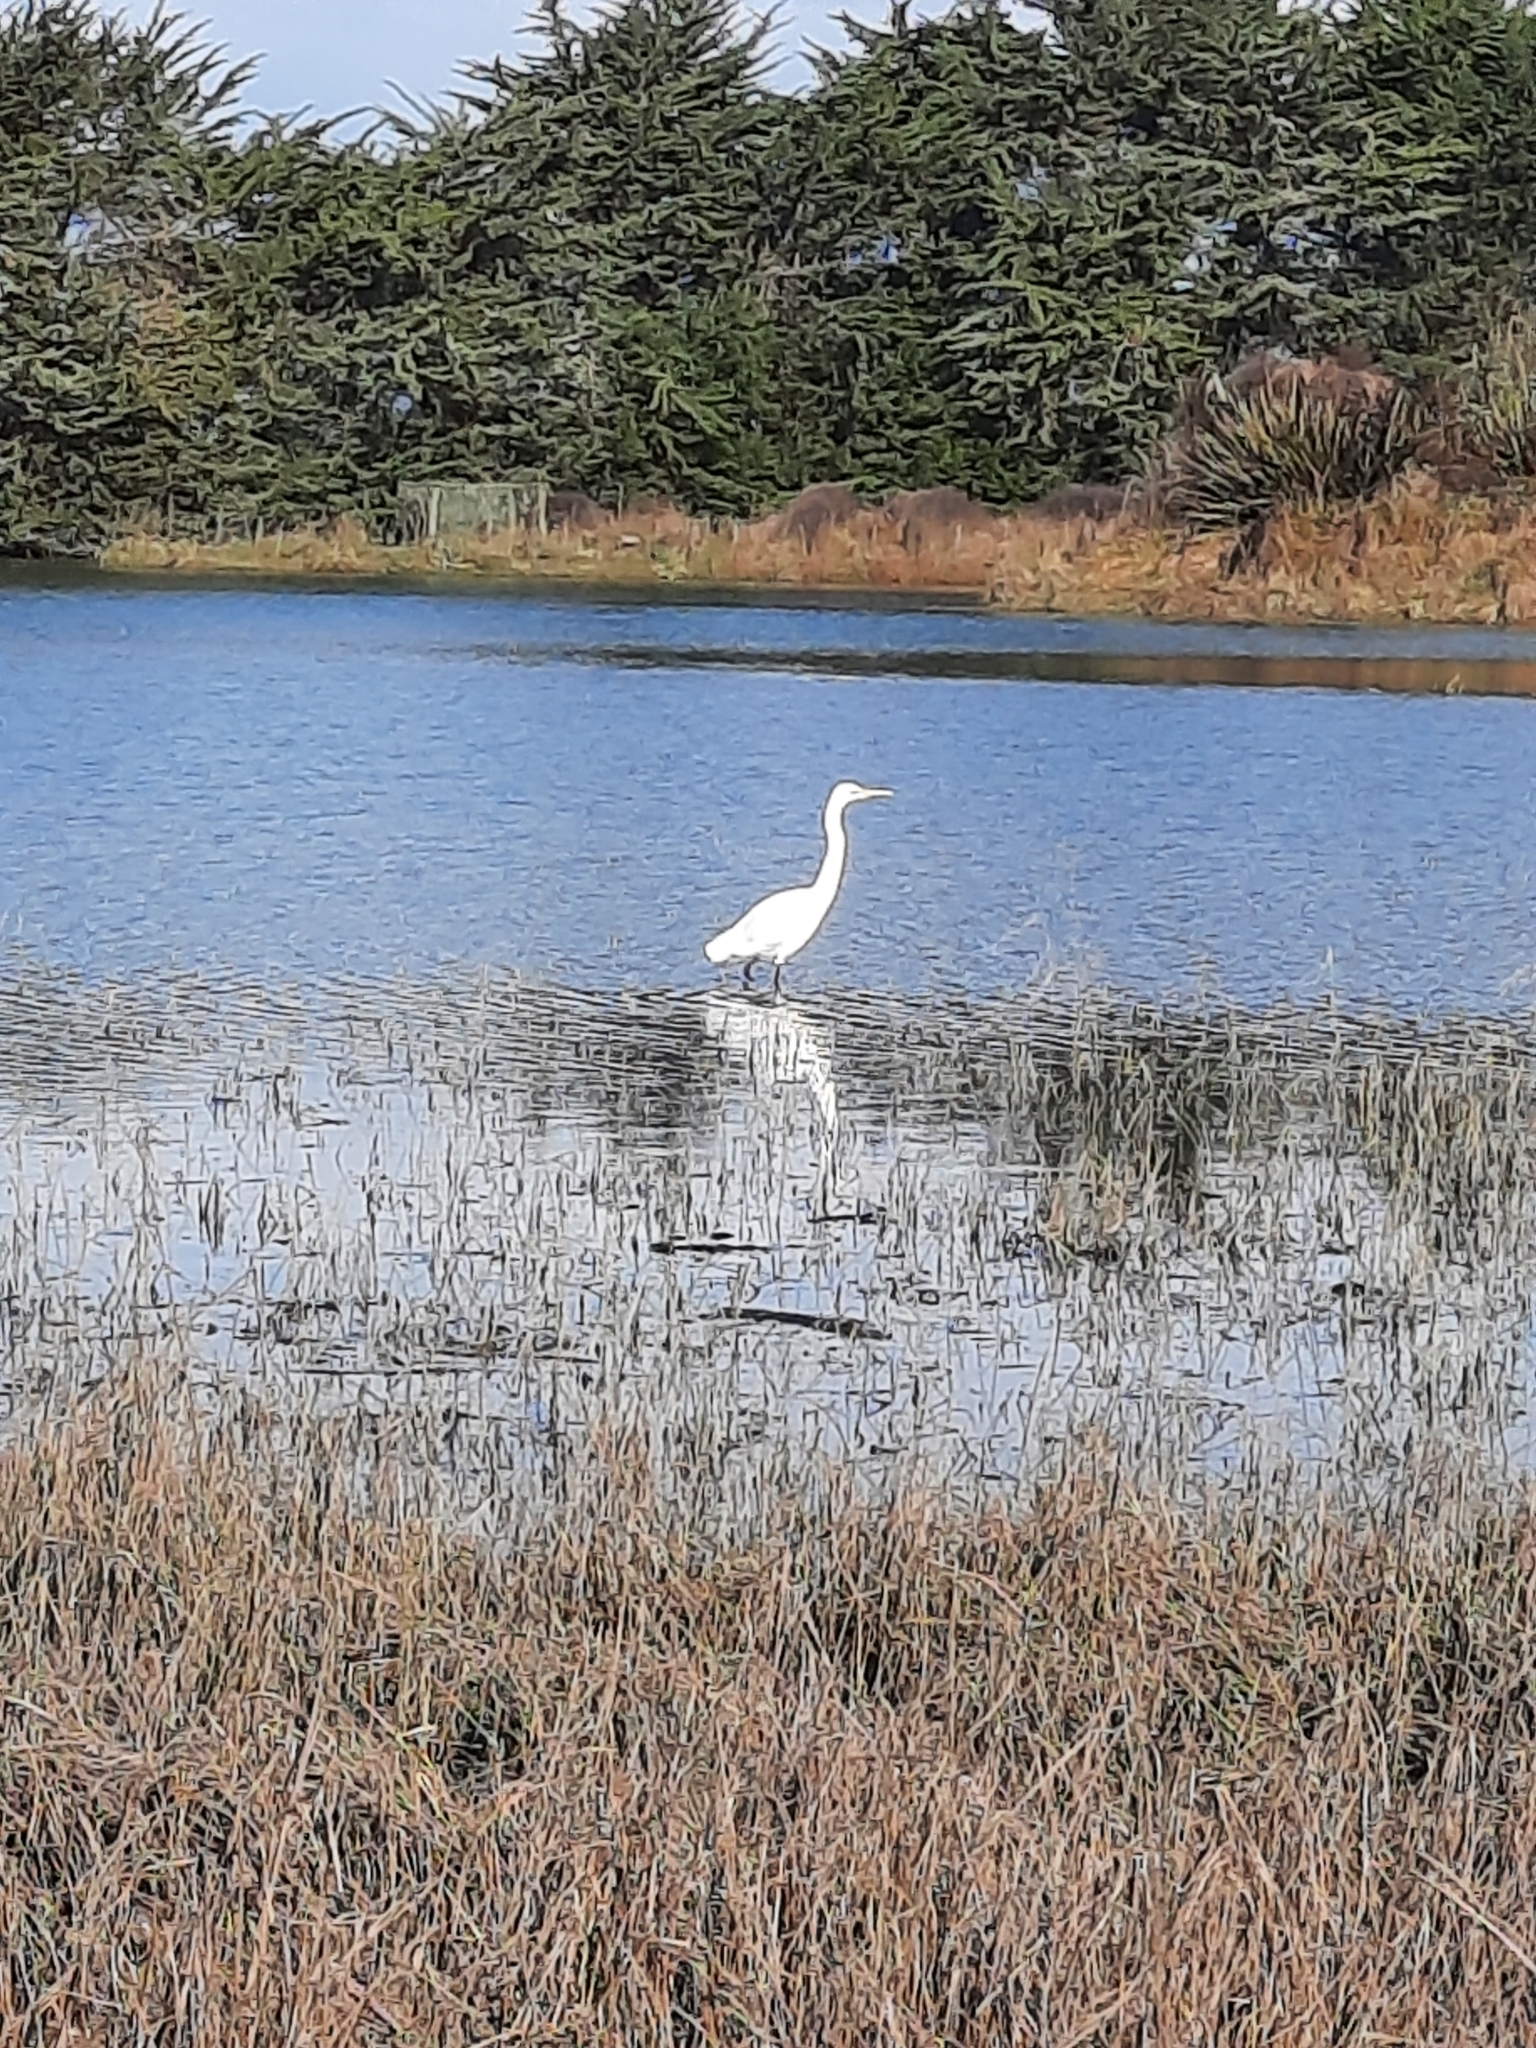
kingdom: Animalia
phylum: Chordata
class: Aves
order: Pelecaniformes
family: Ardeidae
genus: Ardea
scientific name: Ardea modesta
